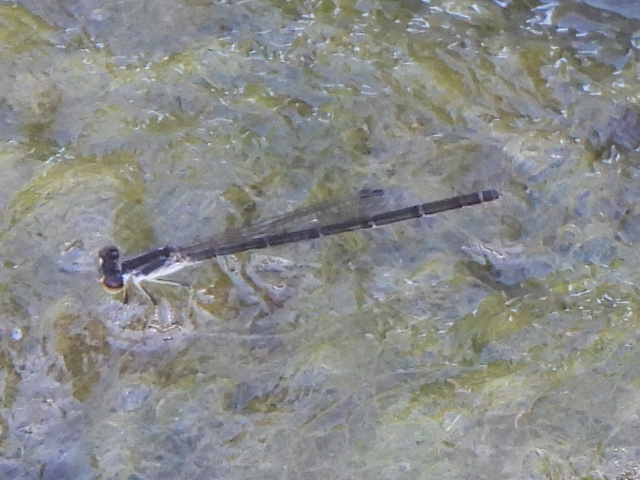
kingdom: Animalia
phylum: Arthropoda
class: Insecta
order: Odonata
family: Coenagrionidae
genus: Ischnura
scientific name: Ischnura posita
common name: Fragile forktail
